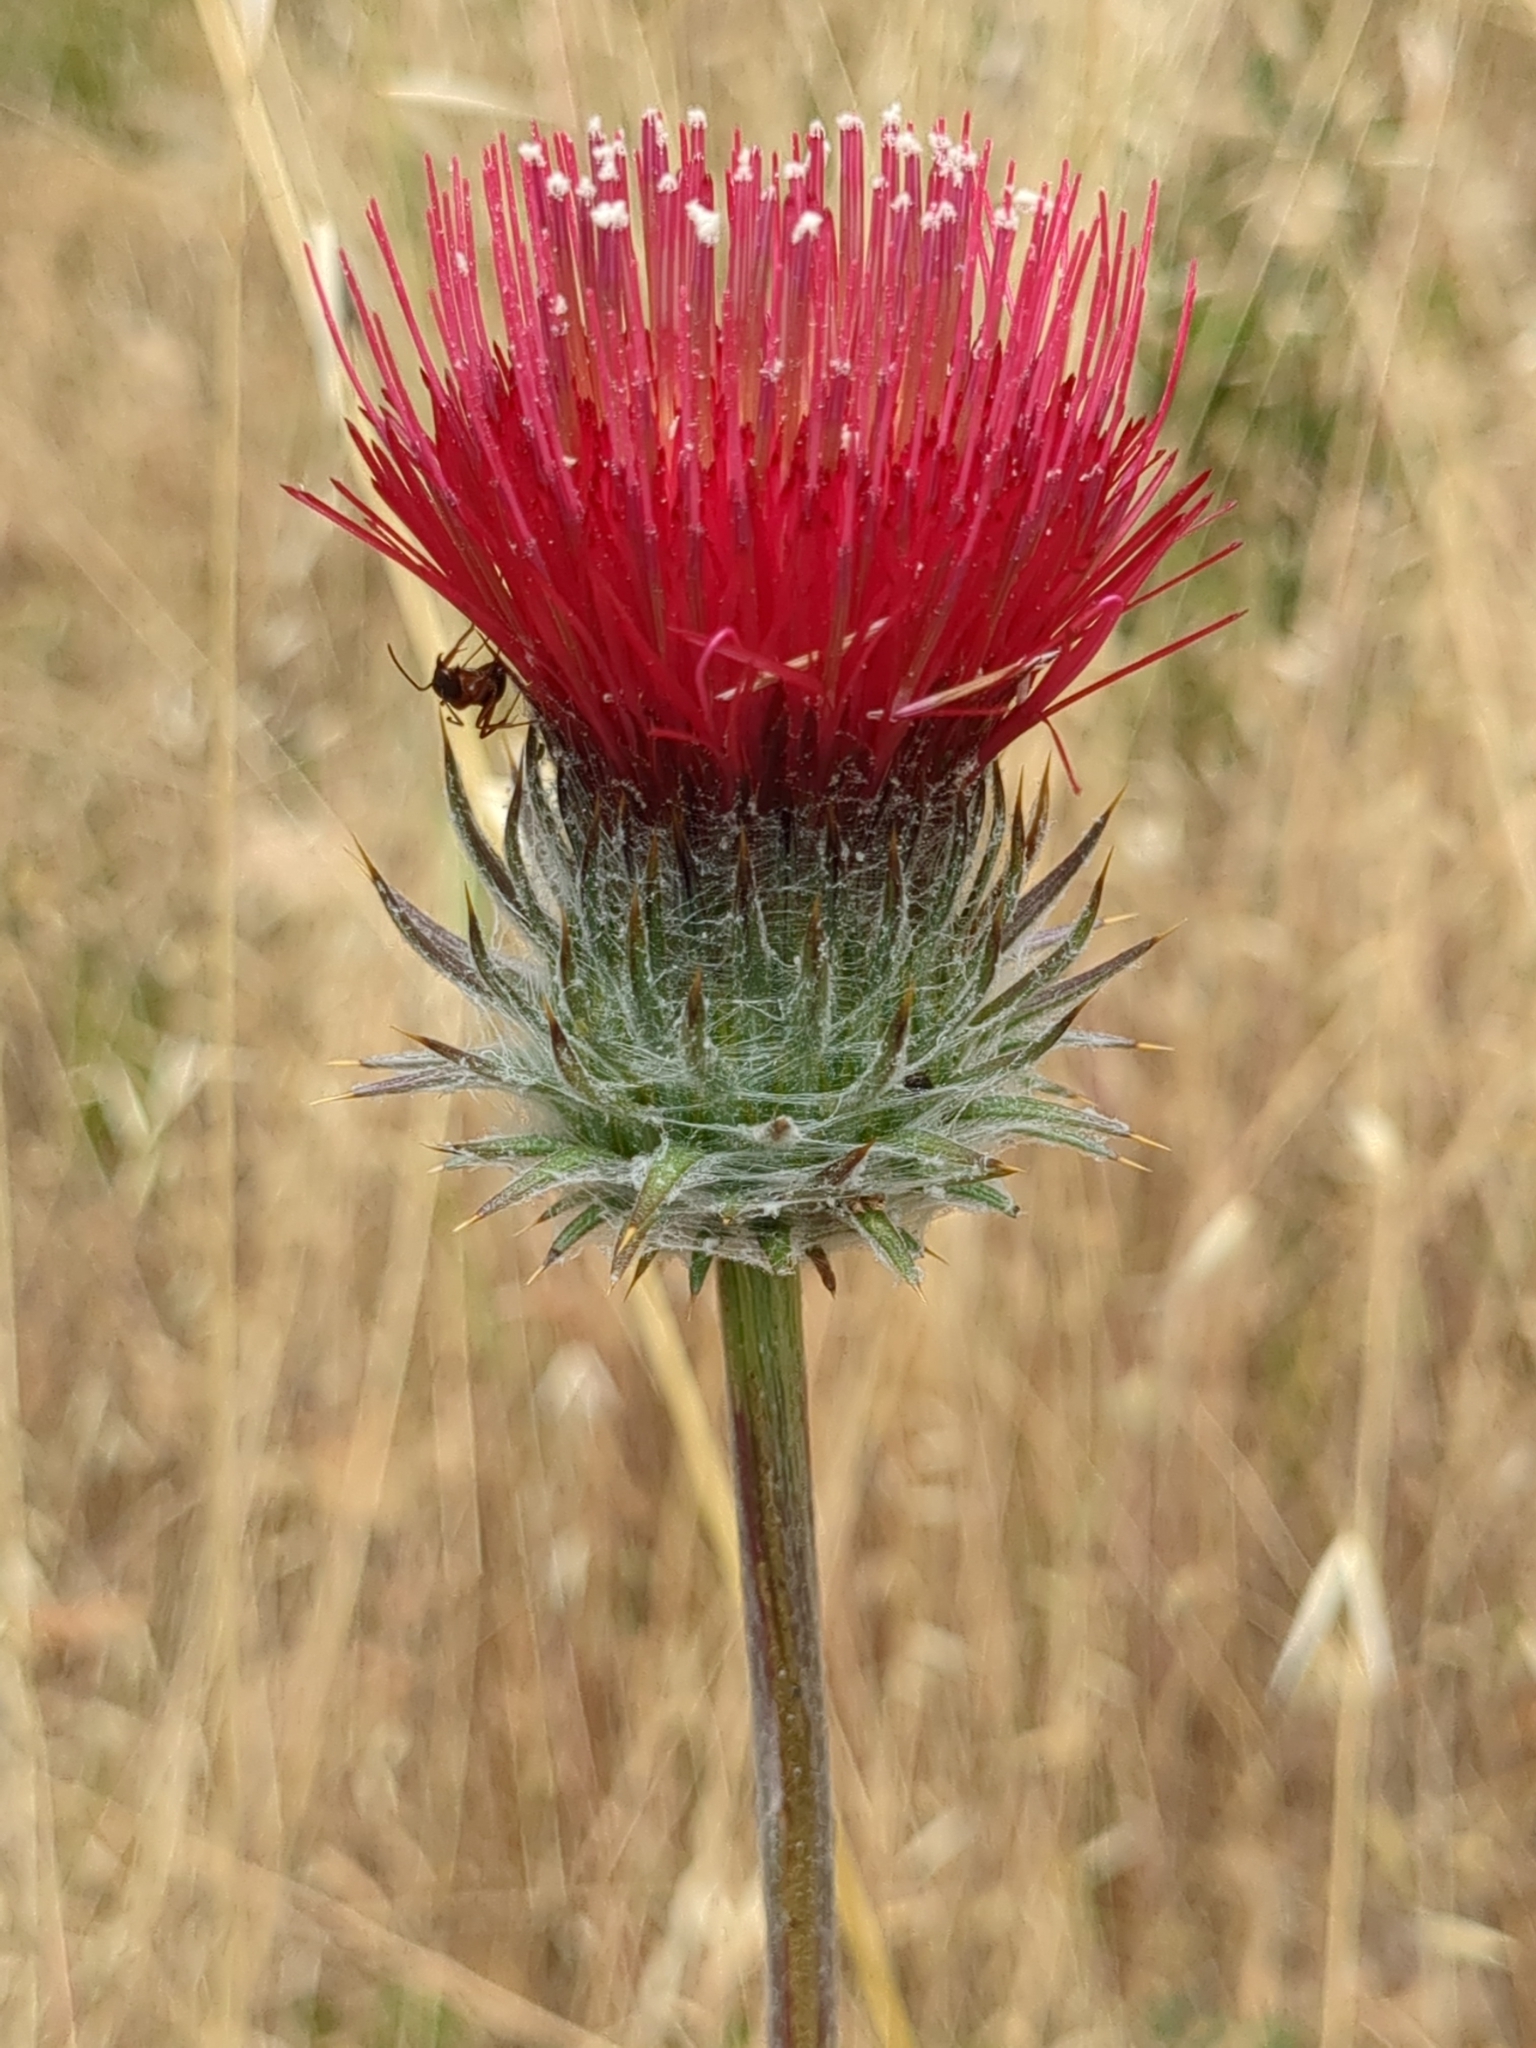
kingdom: Plantae
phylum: Tracheophyta
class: Magnoliopsida
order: Asterales
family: Asteraceae
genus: Cirsium
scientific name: Cirsium occidentale
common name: Western thistle
